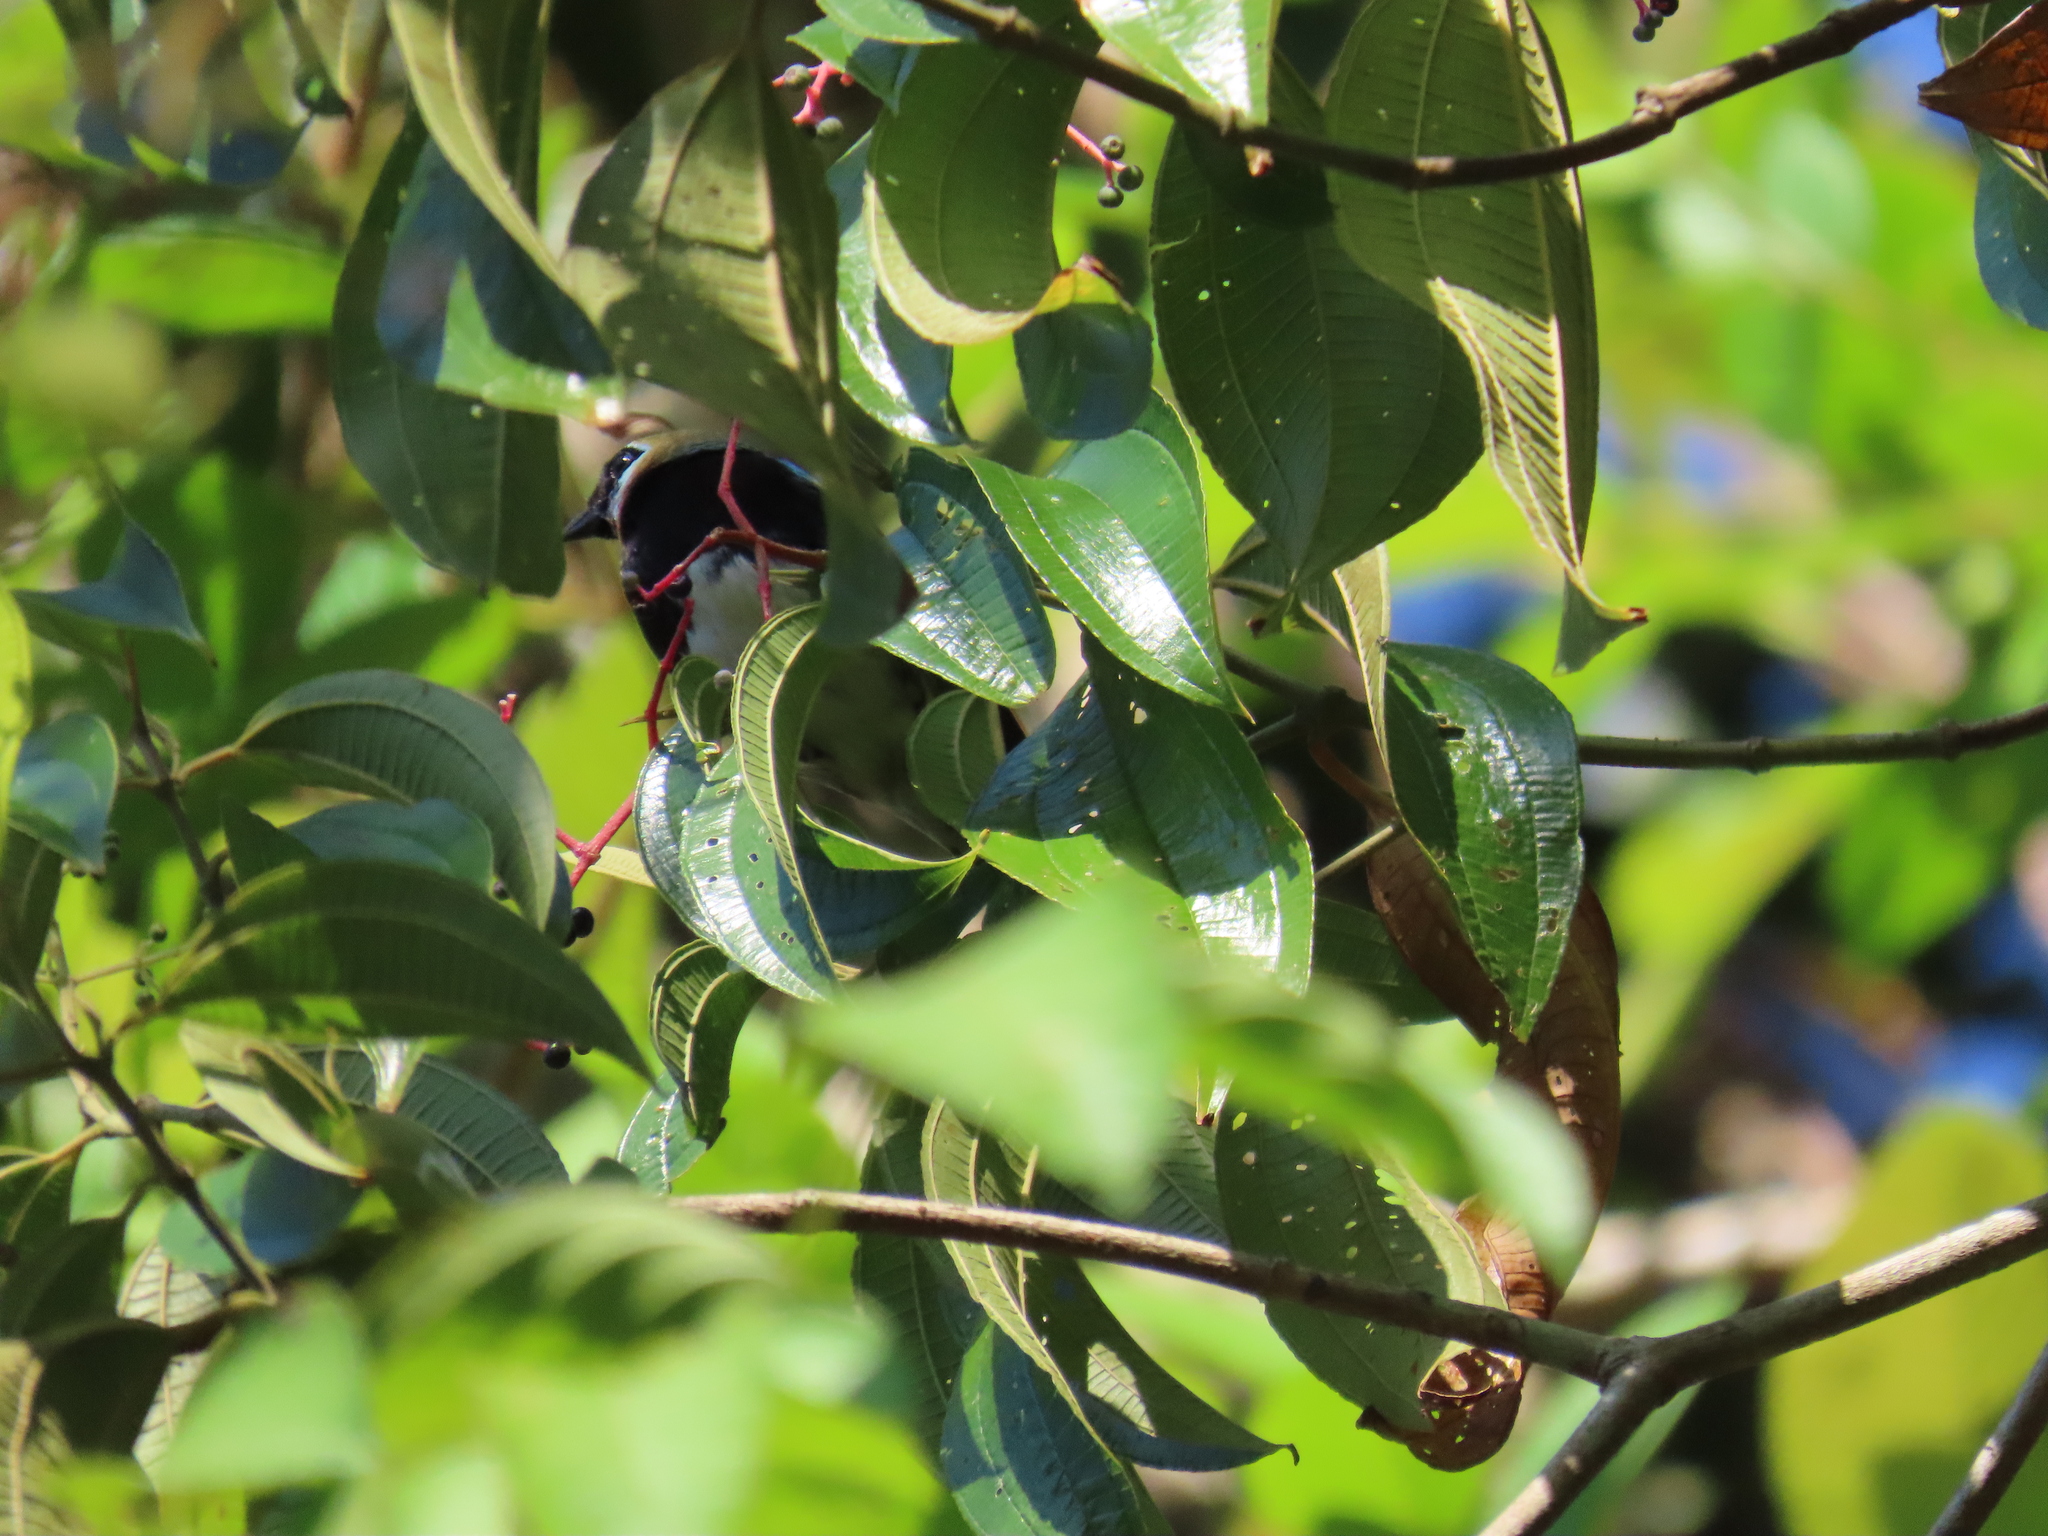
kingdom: Animalia
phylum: Chordata
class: Aves
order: Passeriformes
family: Thraupidae
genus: Stilpnia
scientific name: Stilpnia larvata
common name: Golden-hooded tanager
